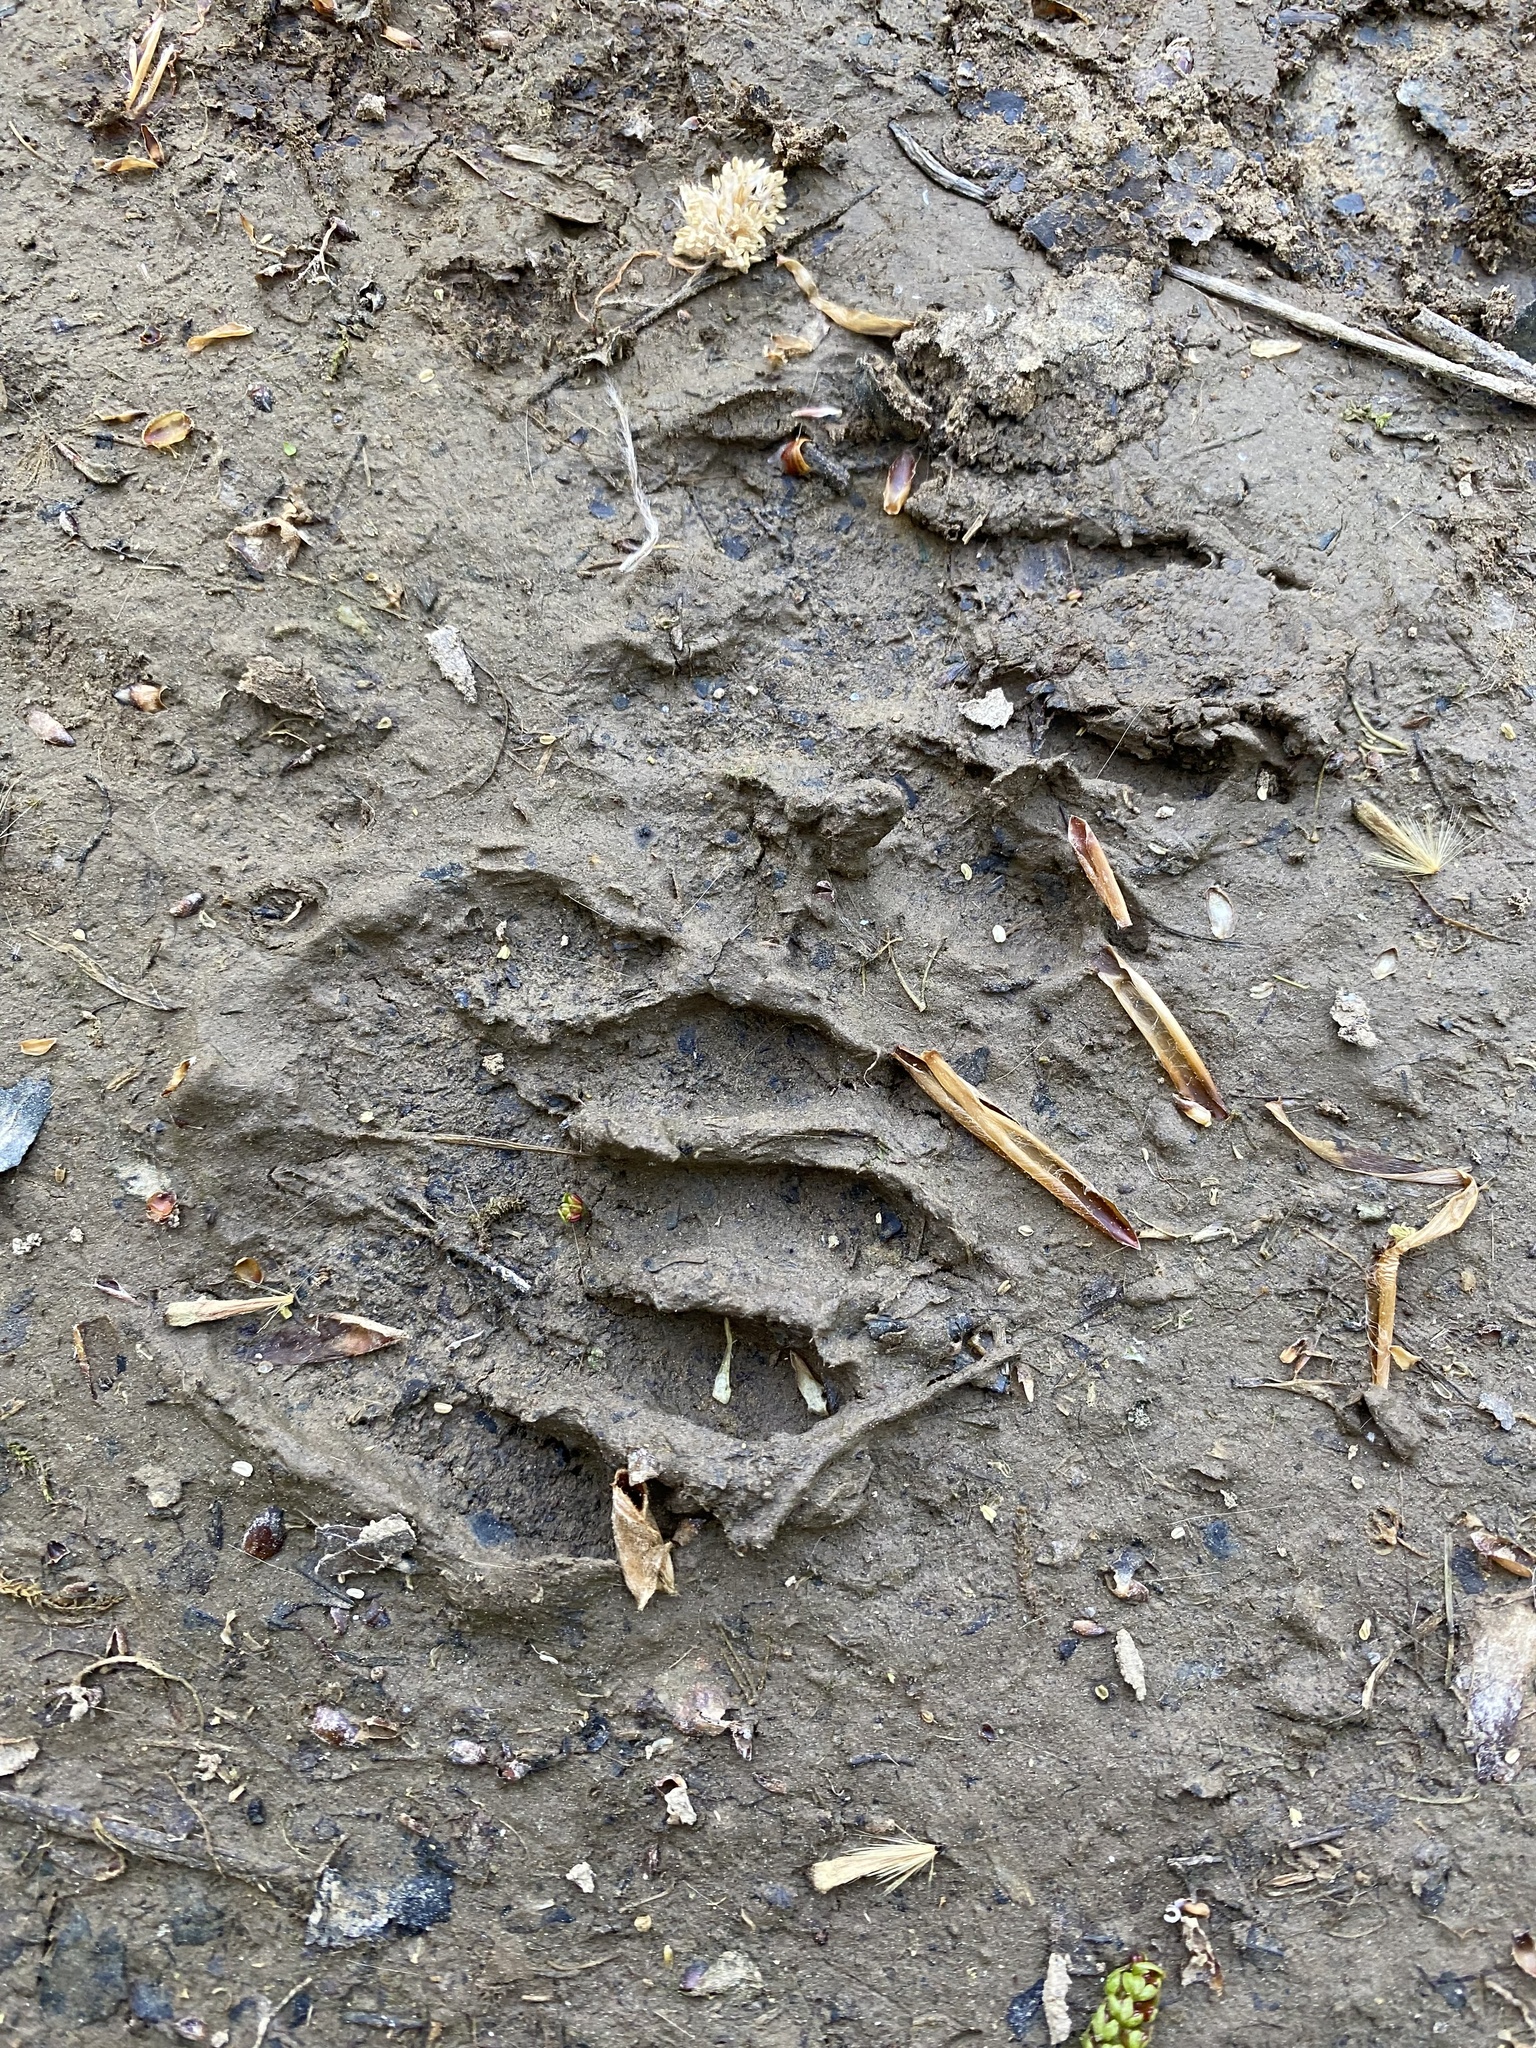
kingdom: Animalia
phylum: Chordata
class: Mammalia
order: Carnivora
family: Procyonidae
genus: Procyon
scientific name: Procyon lotor
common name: Raccoon
